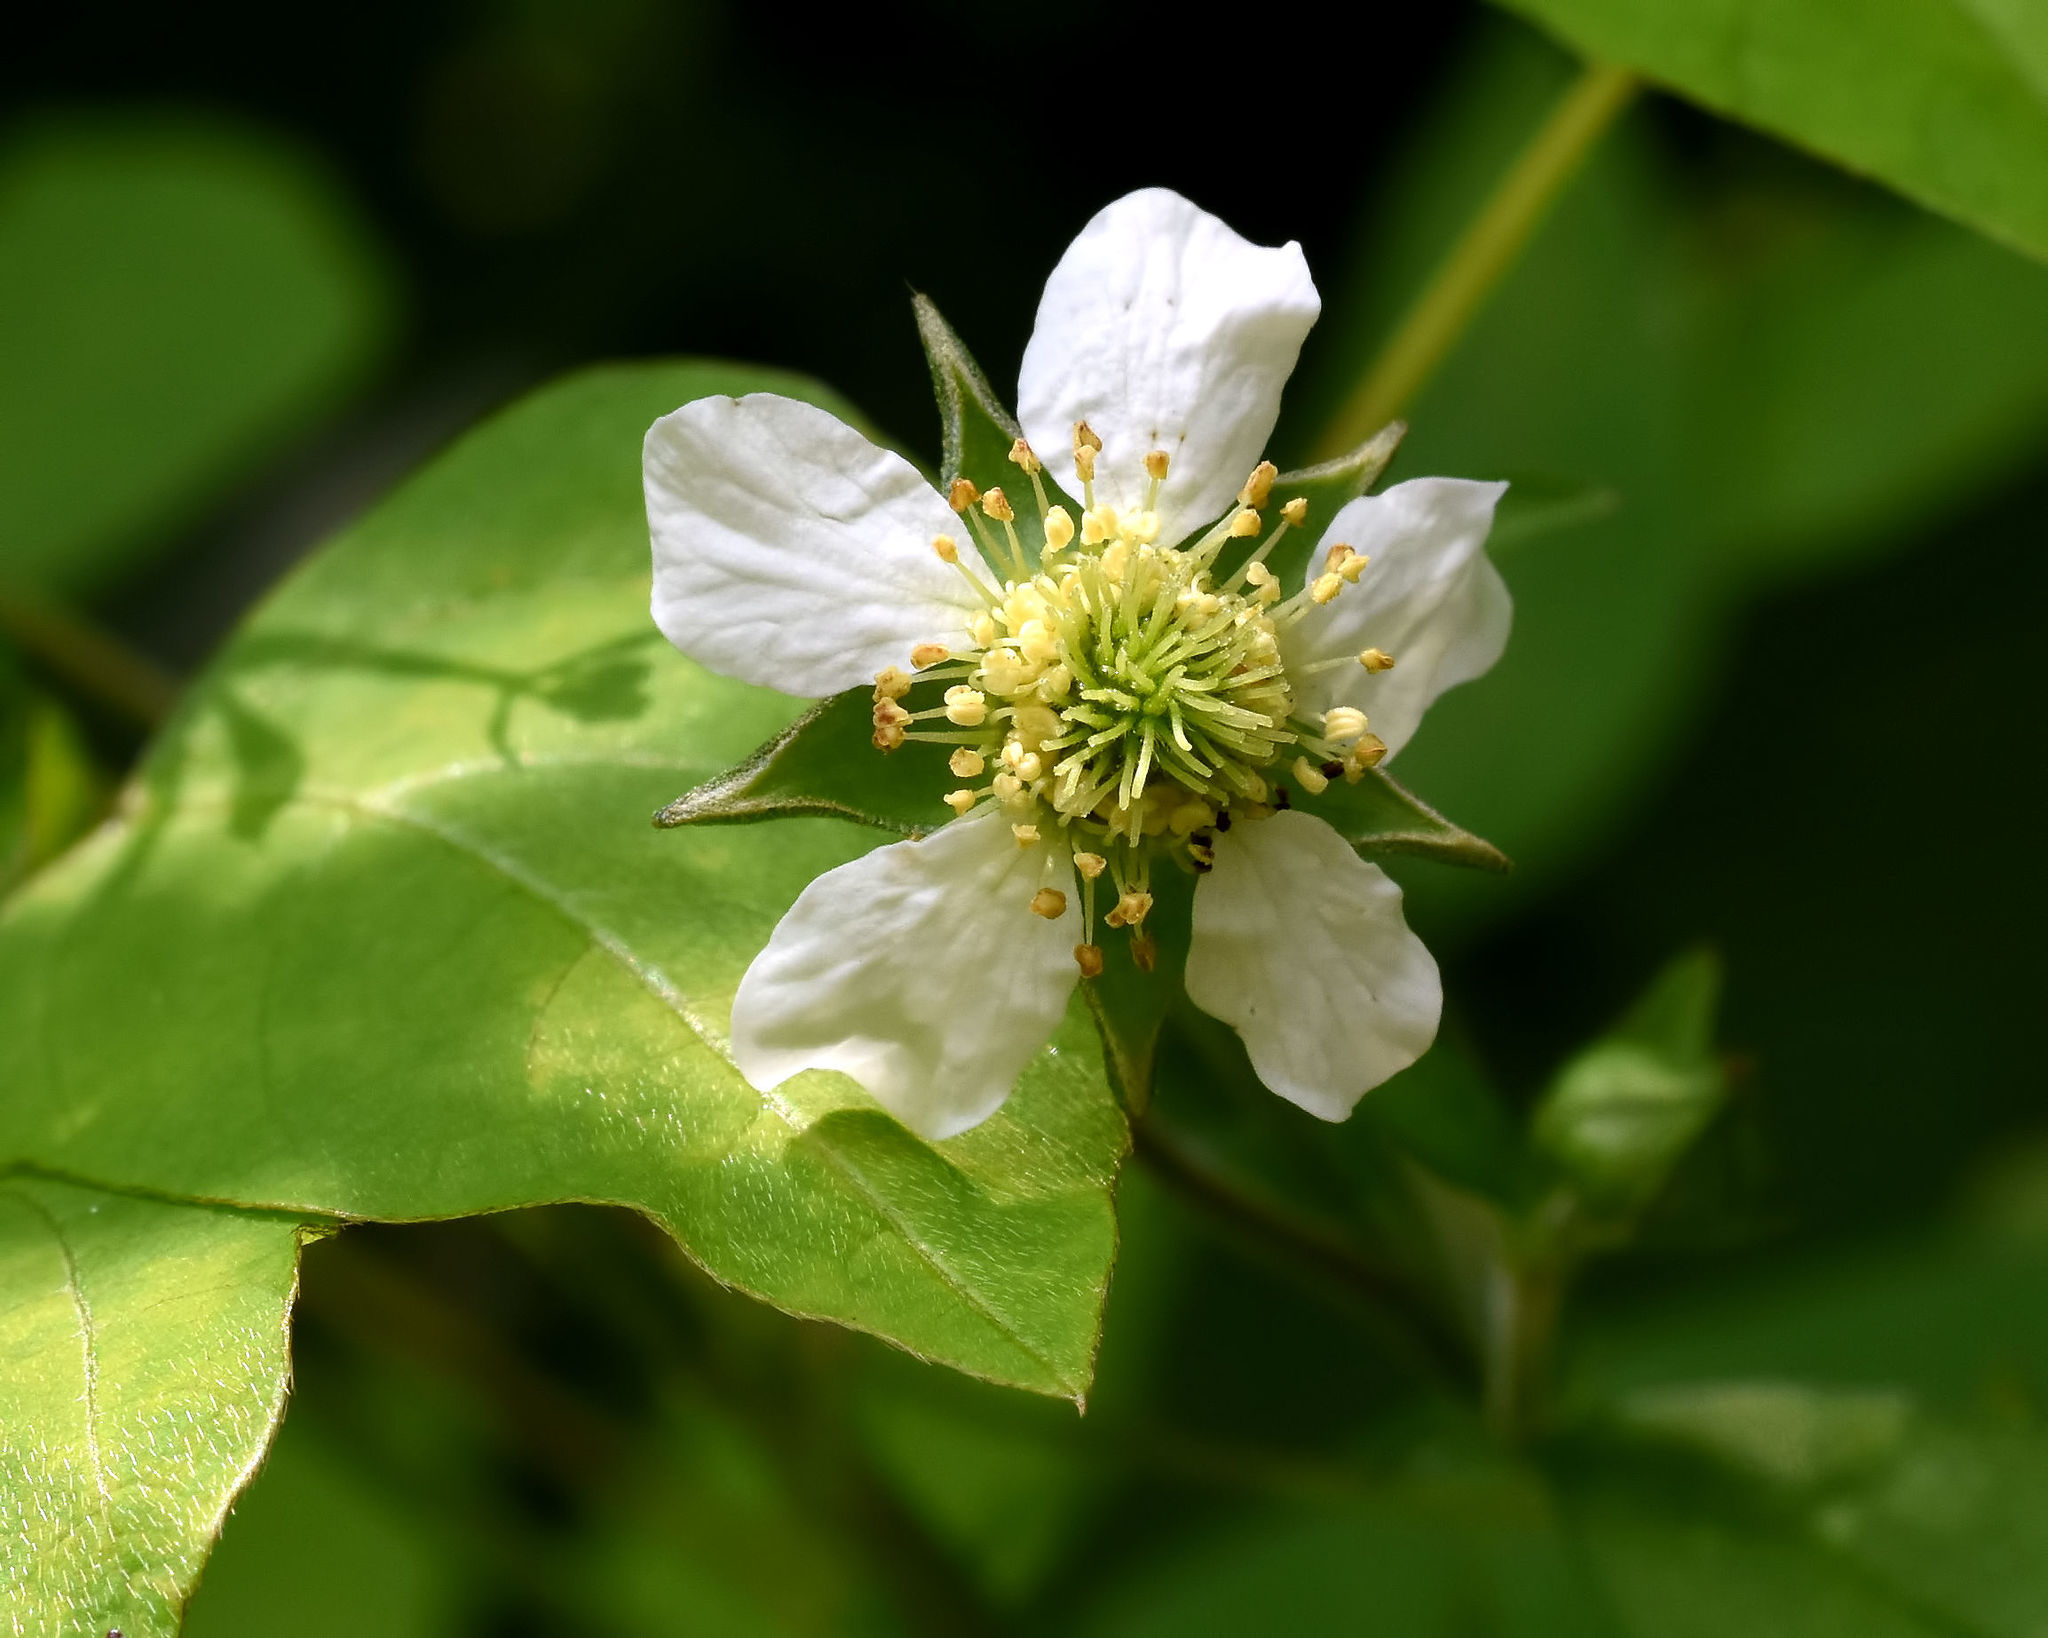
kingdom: Plantae
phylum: Tracheophyta
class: Magnoliopsida
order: Rosales
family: Rosaceae
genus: Geum
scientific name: Geum canadense
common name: White avens
